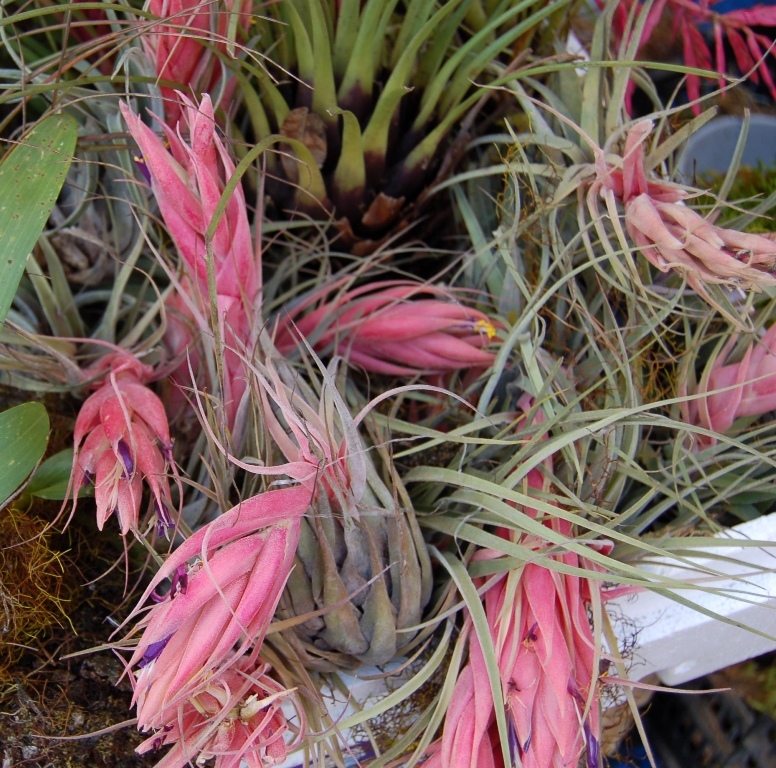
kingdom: Plantae
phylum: Tracheophyta
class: Liliopsida
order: Poales
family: Bromeliaceae
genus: Tillandsia
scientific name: Tillandsia oaxacana
